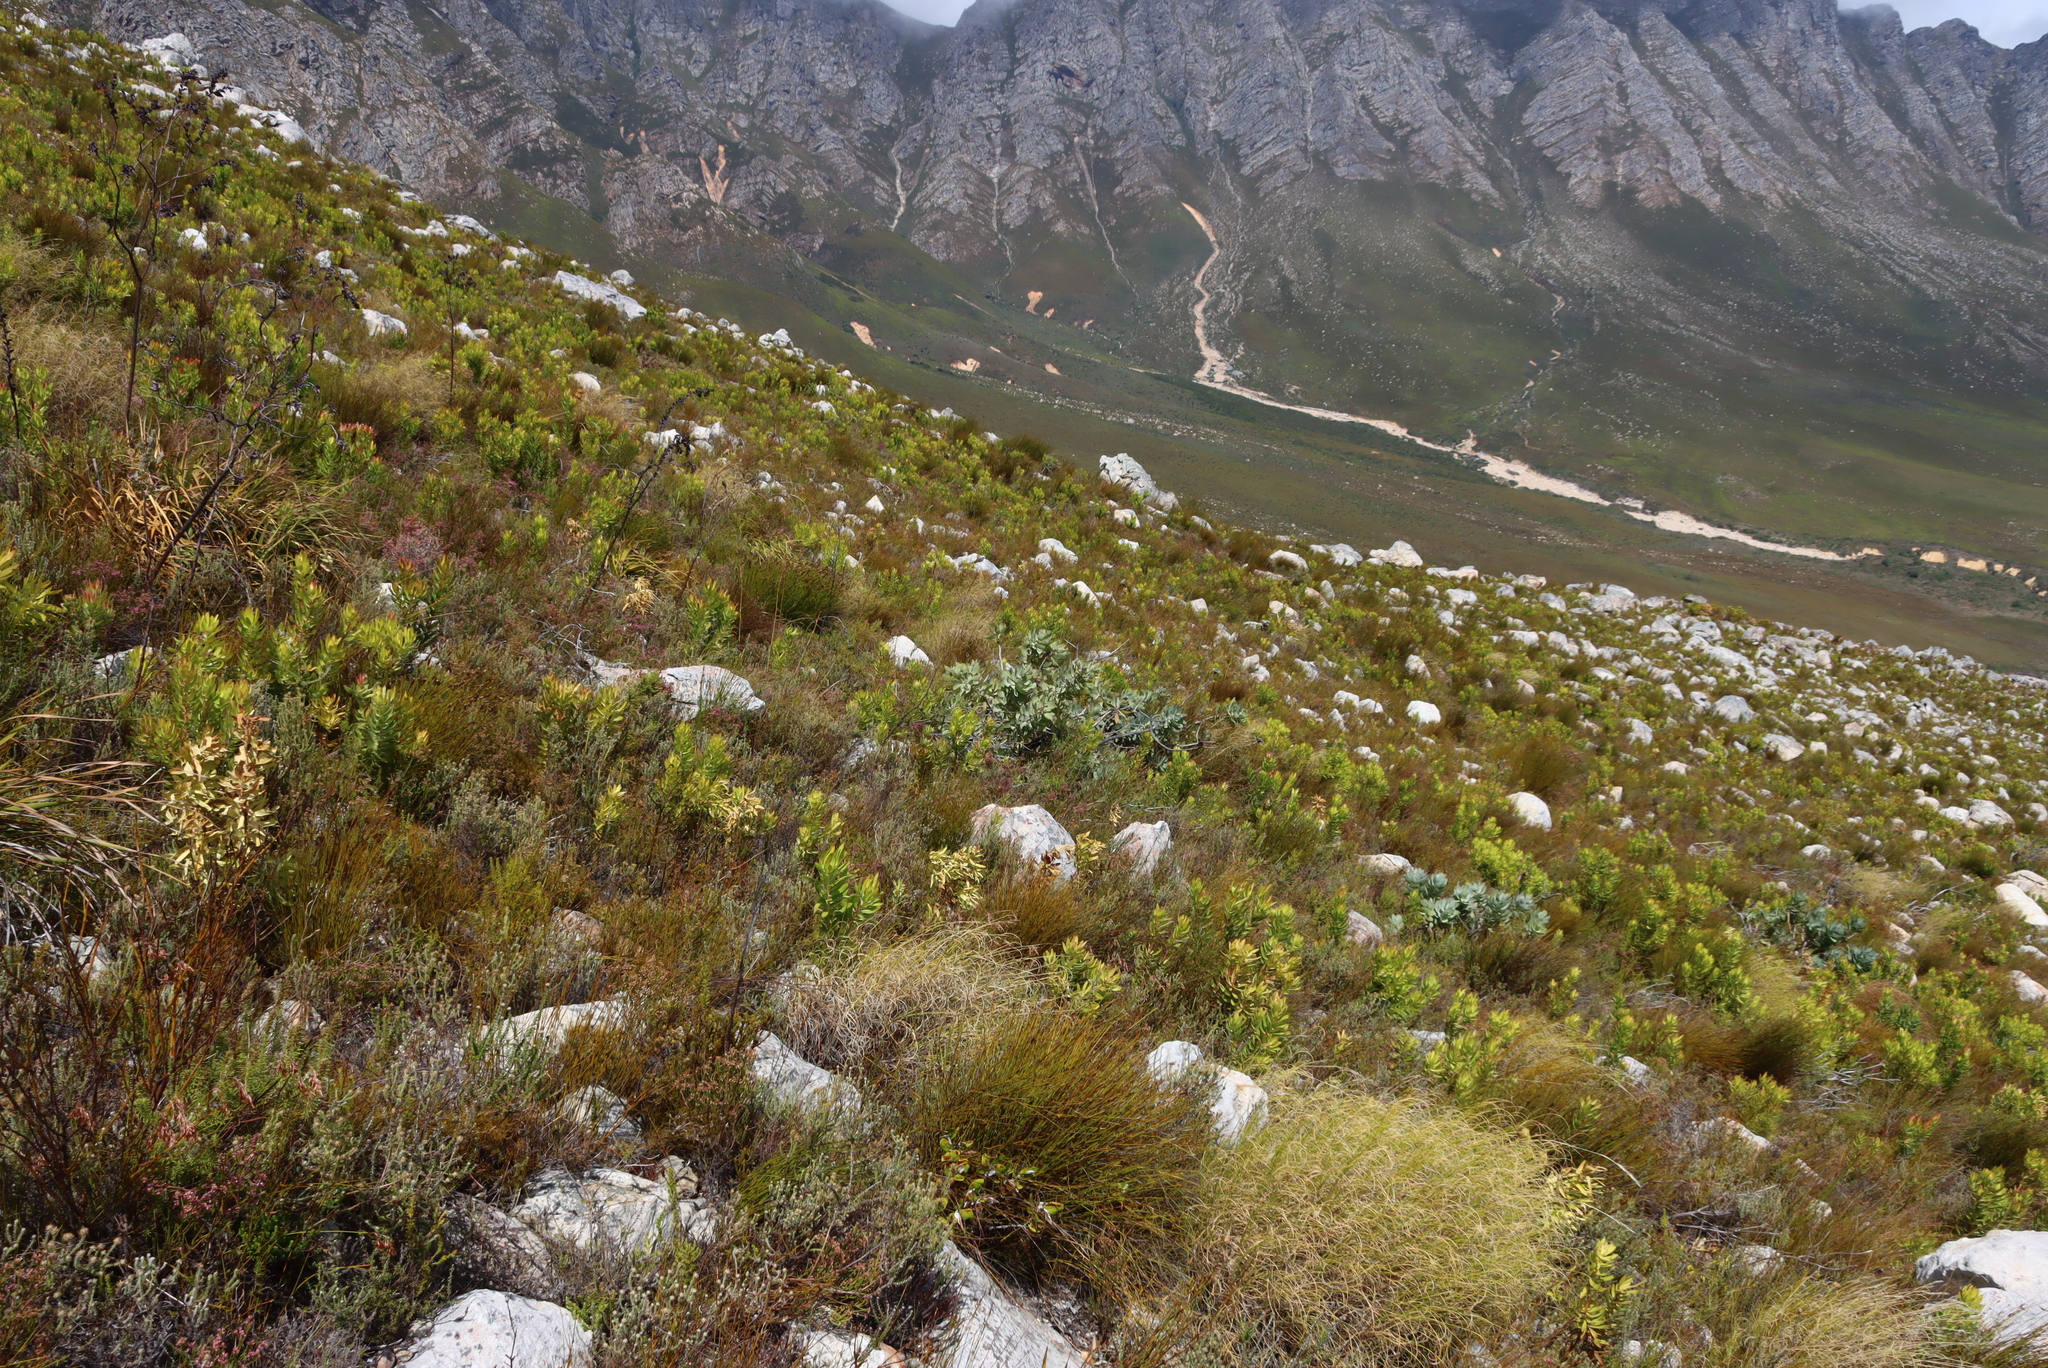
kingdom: Plantae
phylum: Tracheophyta
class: Magnoliopsida
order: Proteales
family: Proteaceae
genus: Protea
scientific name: Protea nitida
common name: Tree protea
